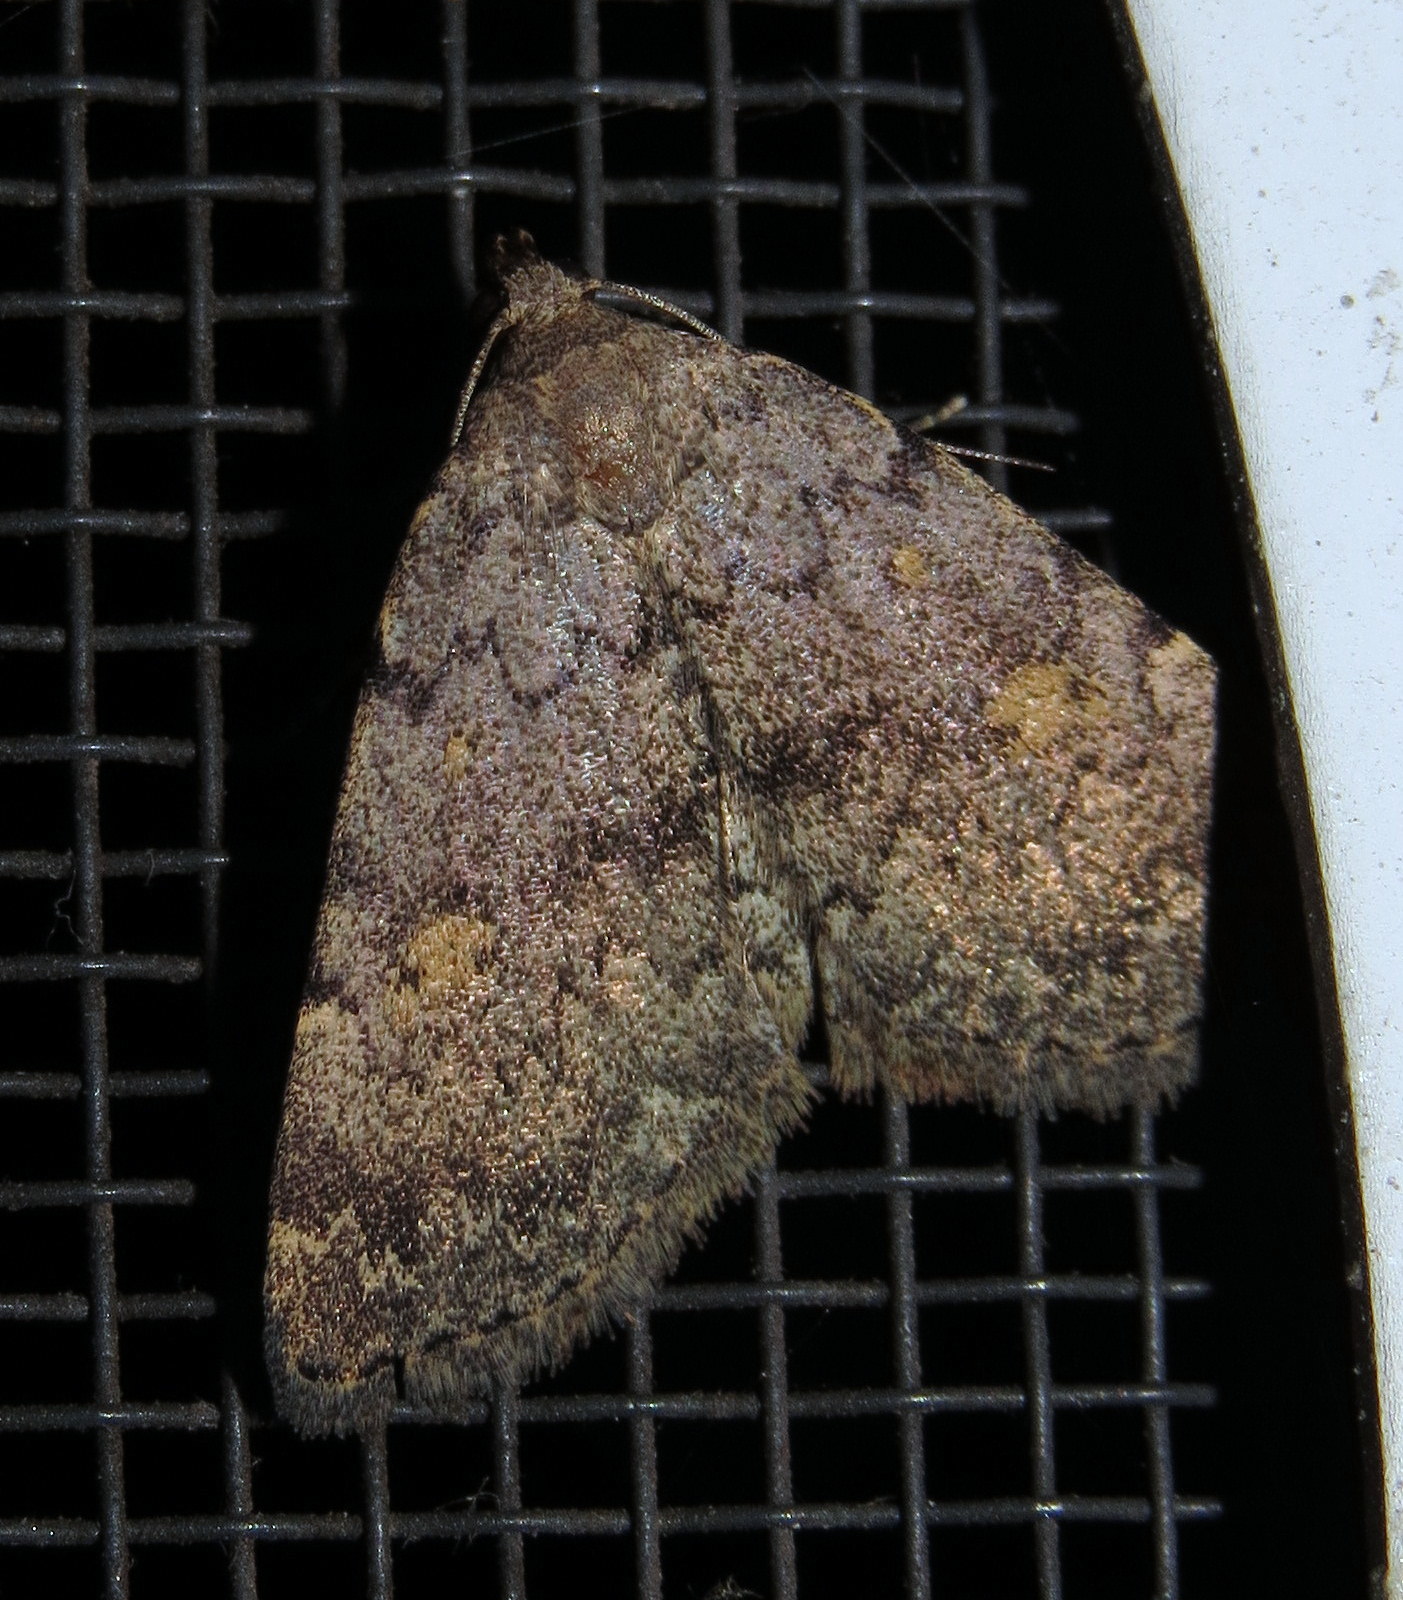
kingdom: Animalia
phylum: Arthropoda
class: Insecta
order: Lepidoptera
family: Erebidae
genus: Idia
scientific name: Idia aemula
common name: Common idia moth
